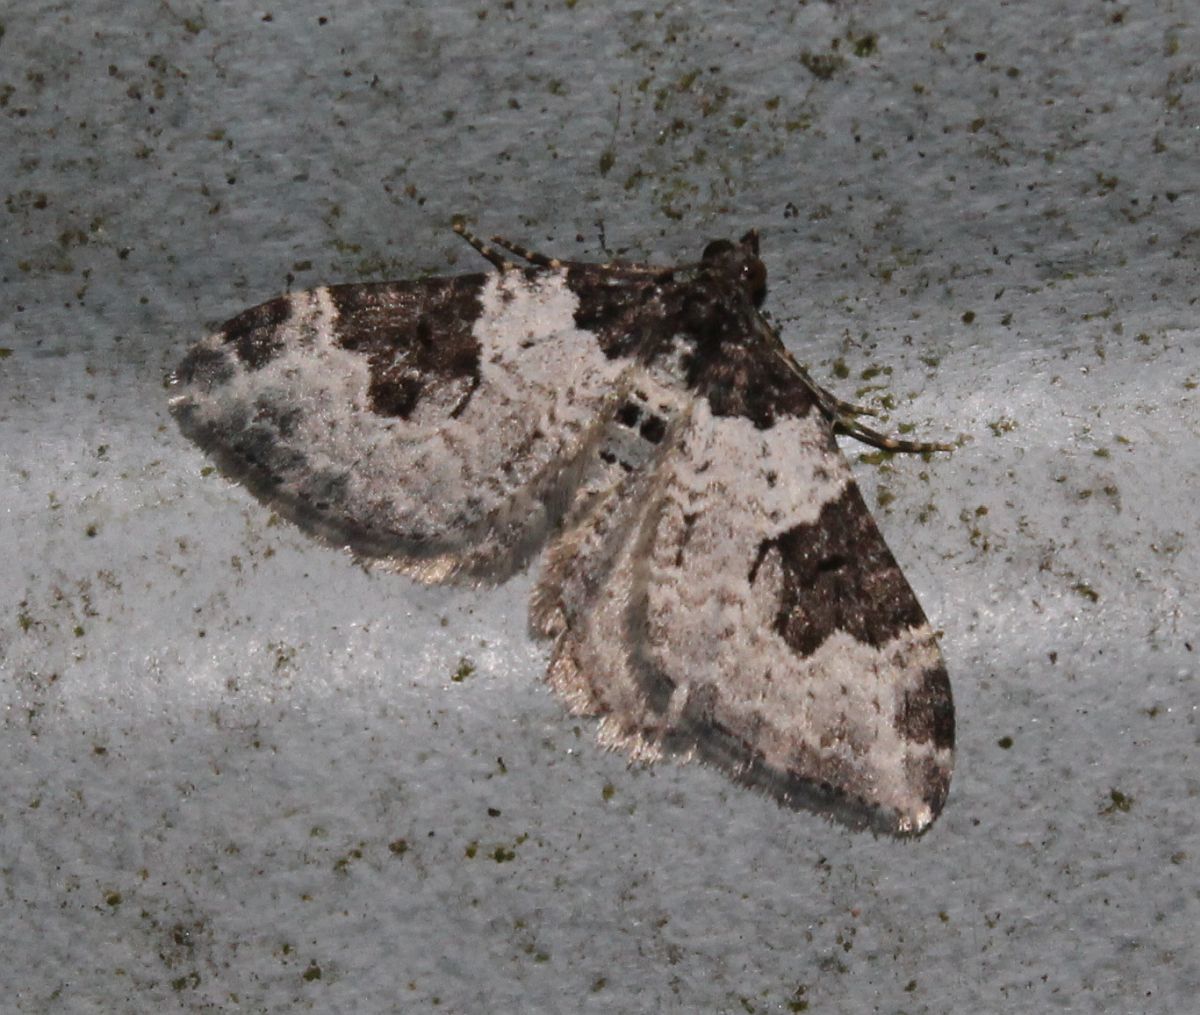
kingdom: Animalia
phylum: Arthropoda
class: Insecta
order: Lepidoptera
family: Geometridae
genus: Xanthorhoe
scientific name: Xanthorhoe fluctuata
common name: Garden carpet
